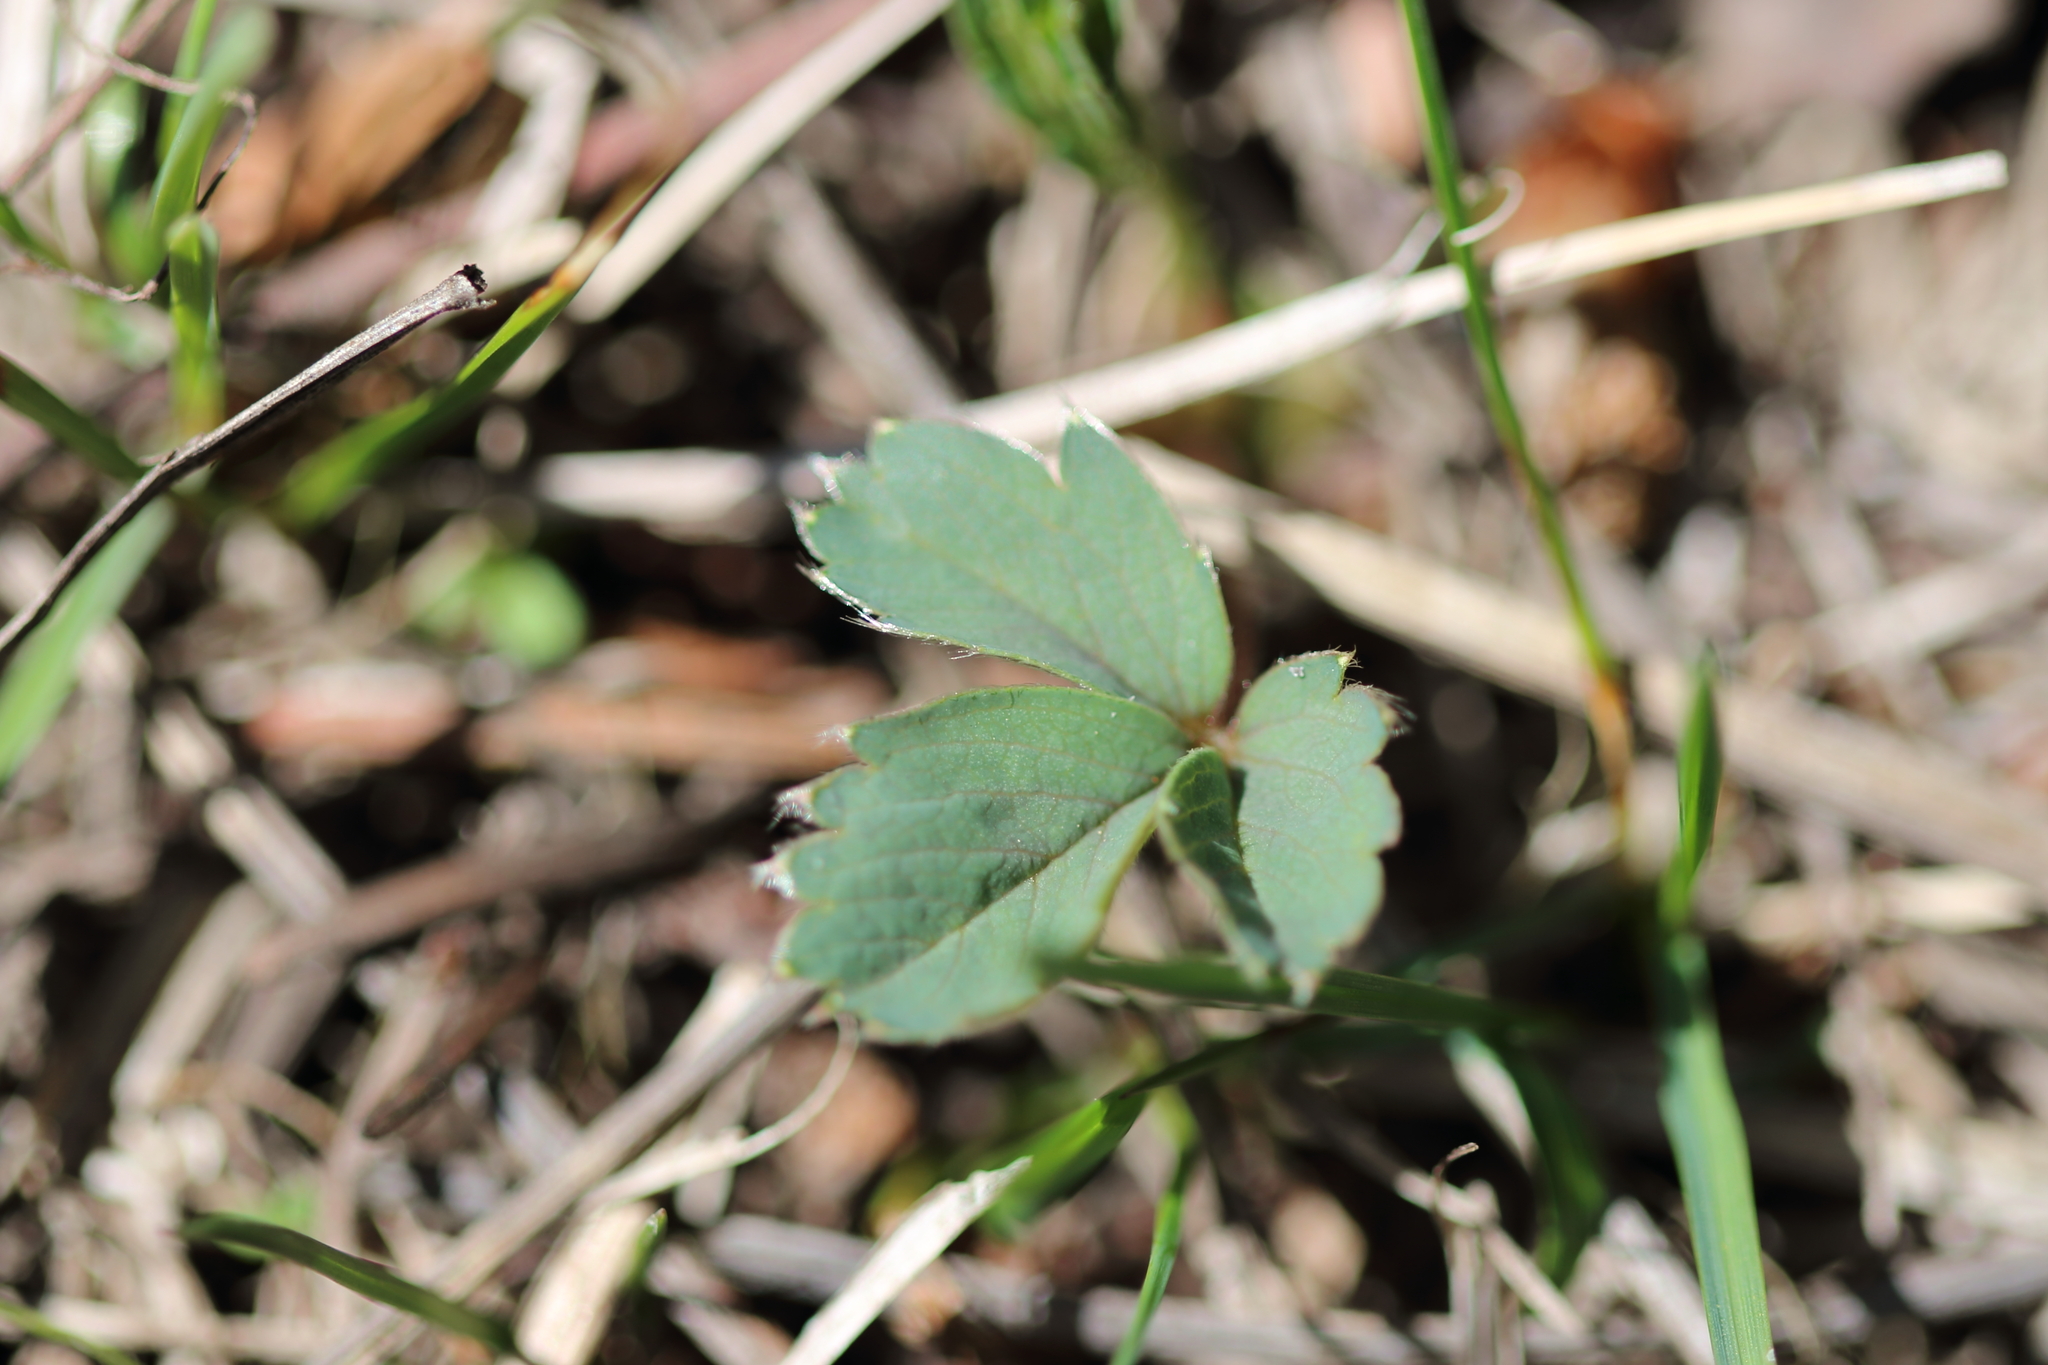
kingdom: Plantae
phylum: Tracheophyta
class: Magnoliopsida
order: Rosales
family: Rosaceae
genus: Fragaria
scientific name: Fragaria virginiana
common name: Thickleaved wild strawberry
